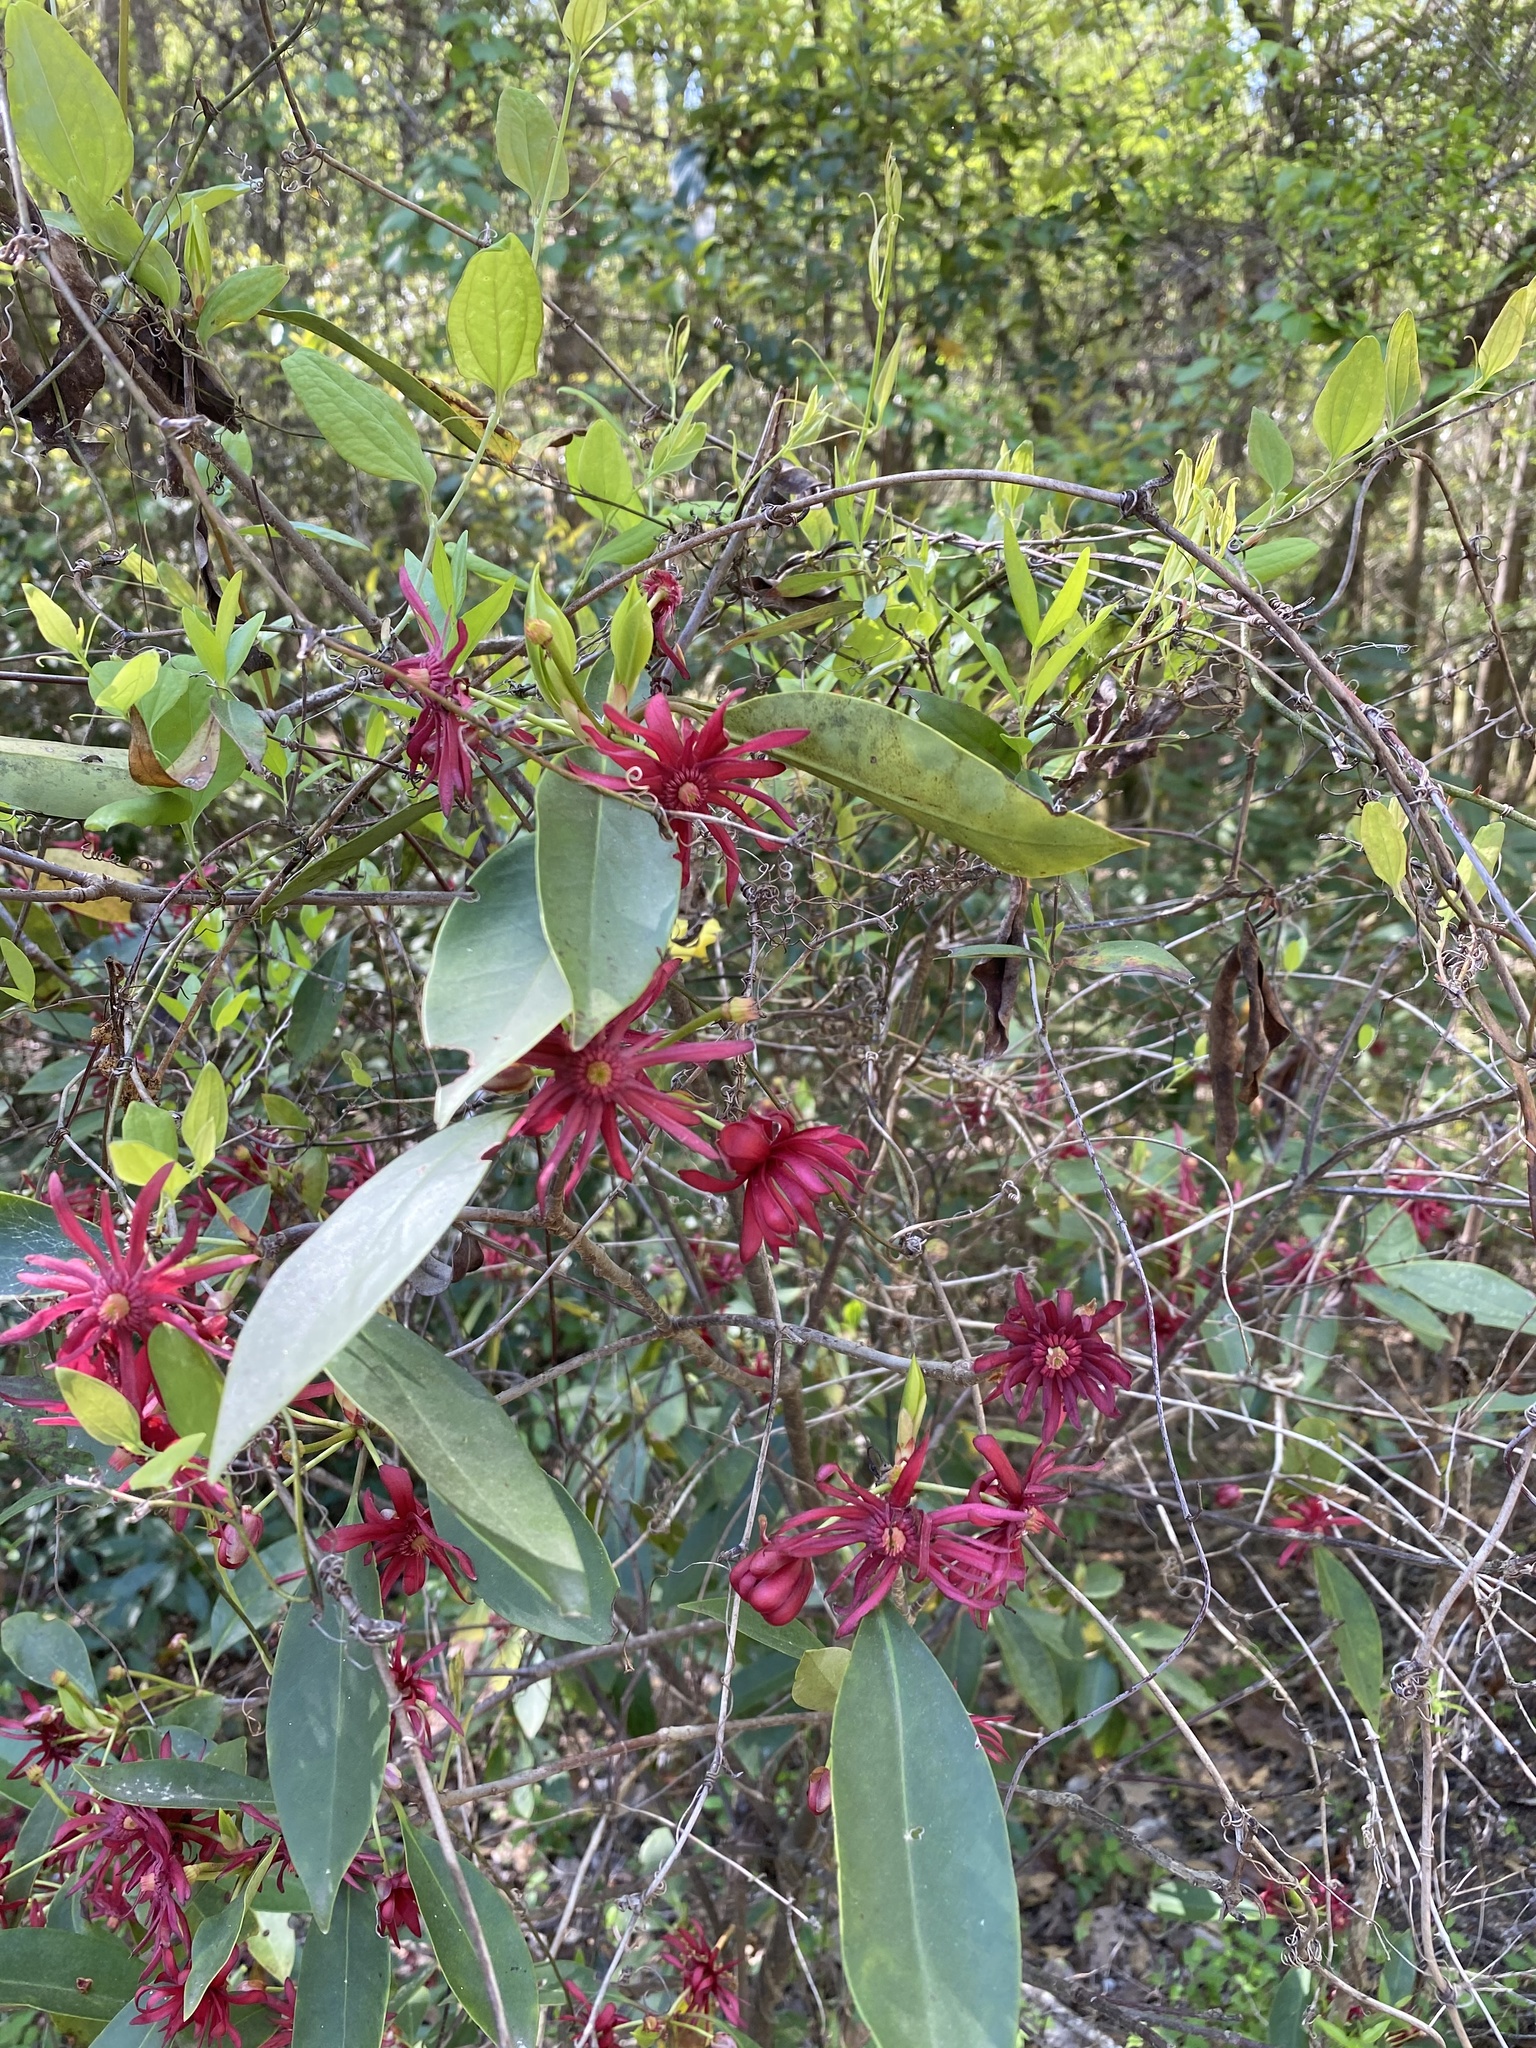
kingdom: Plantae
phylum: Tracheophyta
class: Magnoliopsida
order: Austrobaileyales
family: Schisandraceae
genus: Illicium
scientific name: Illicium floridanum
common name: Florida anisetree
